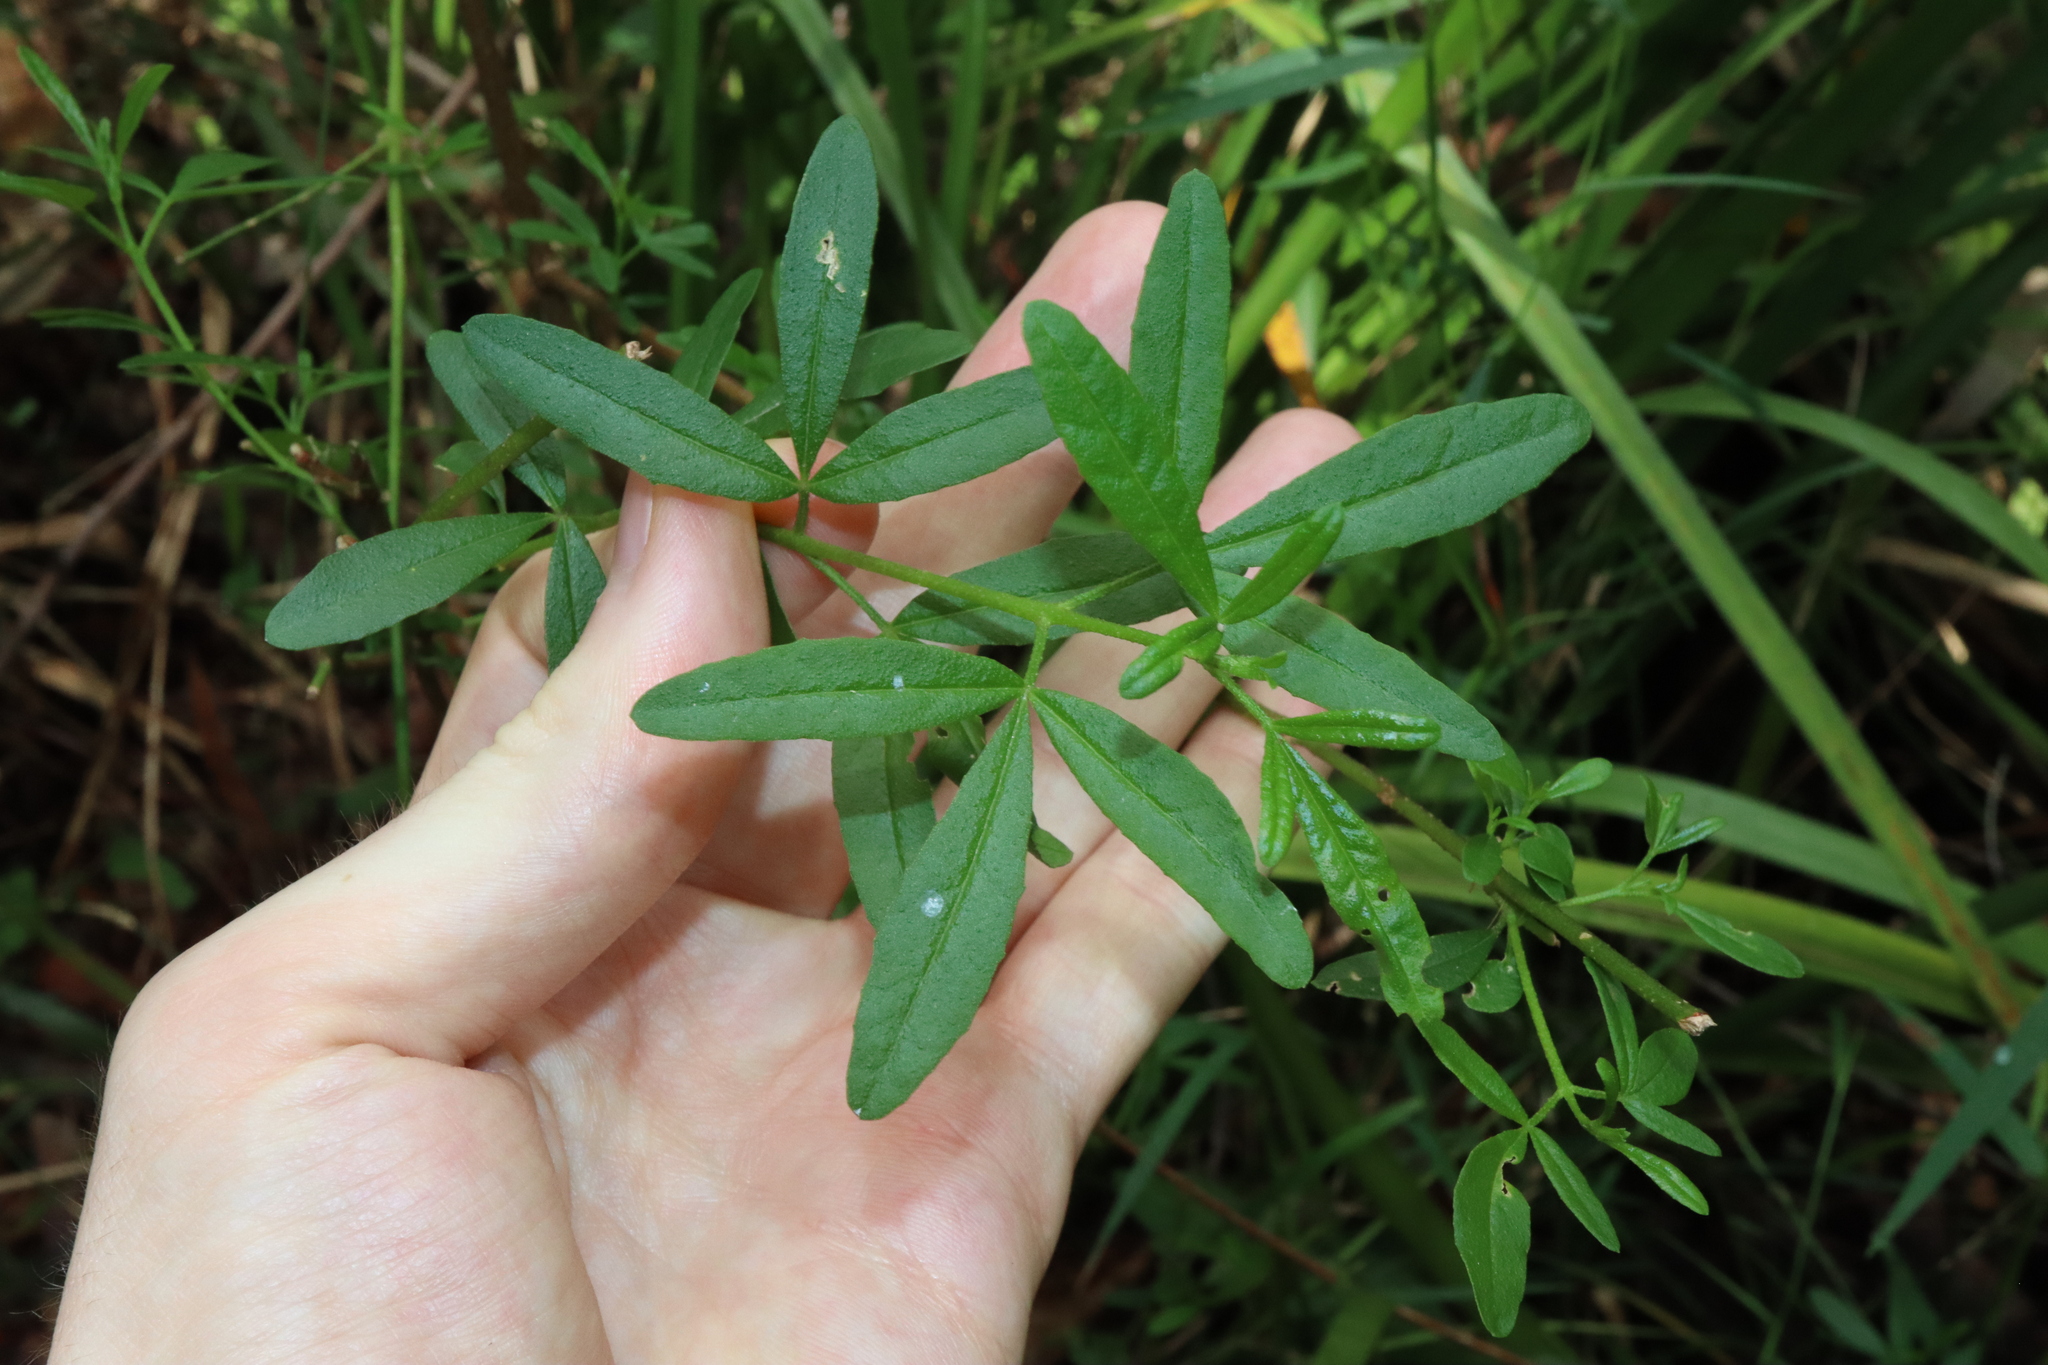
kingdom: Plantae
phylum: Tracheophyta
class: Magnoliopsida
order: Sapindales
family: Rutaceae
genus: Zieria
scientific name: Zieria smithii
